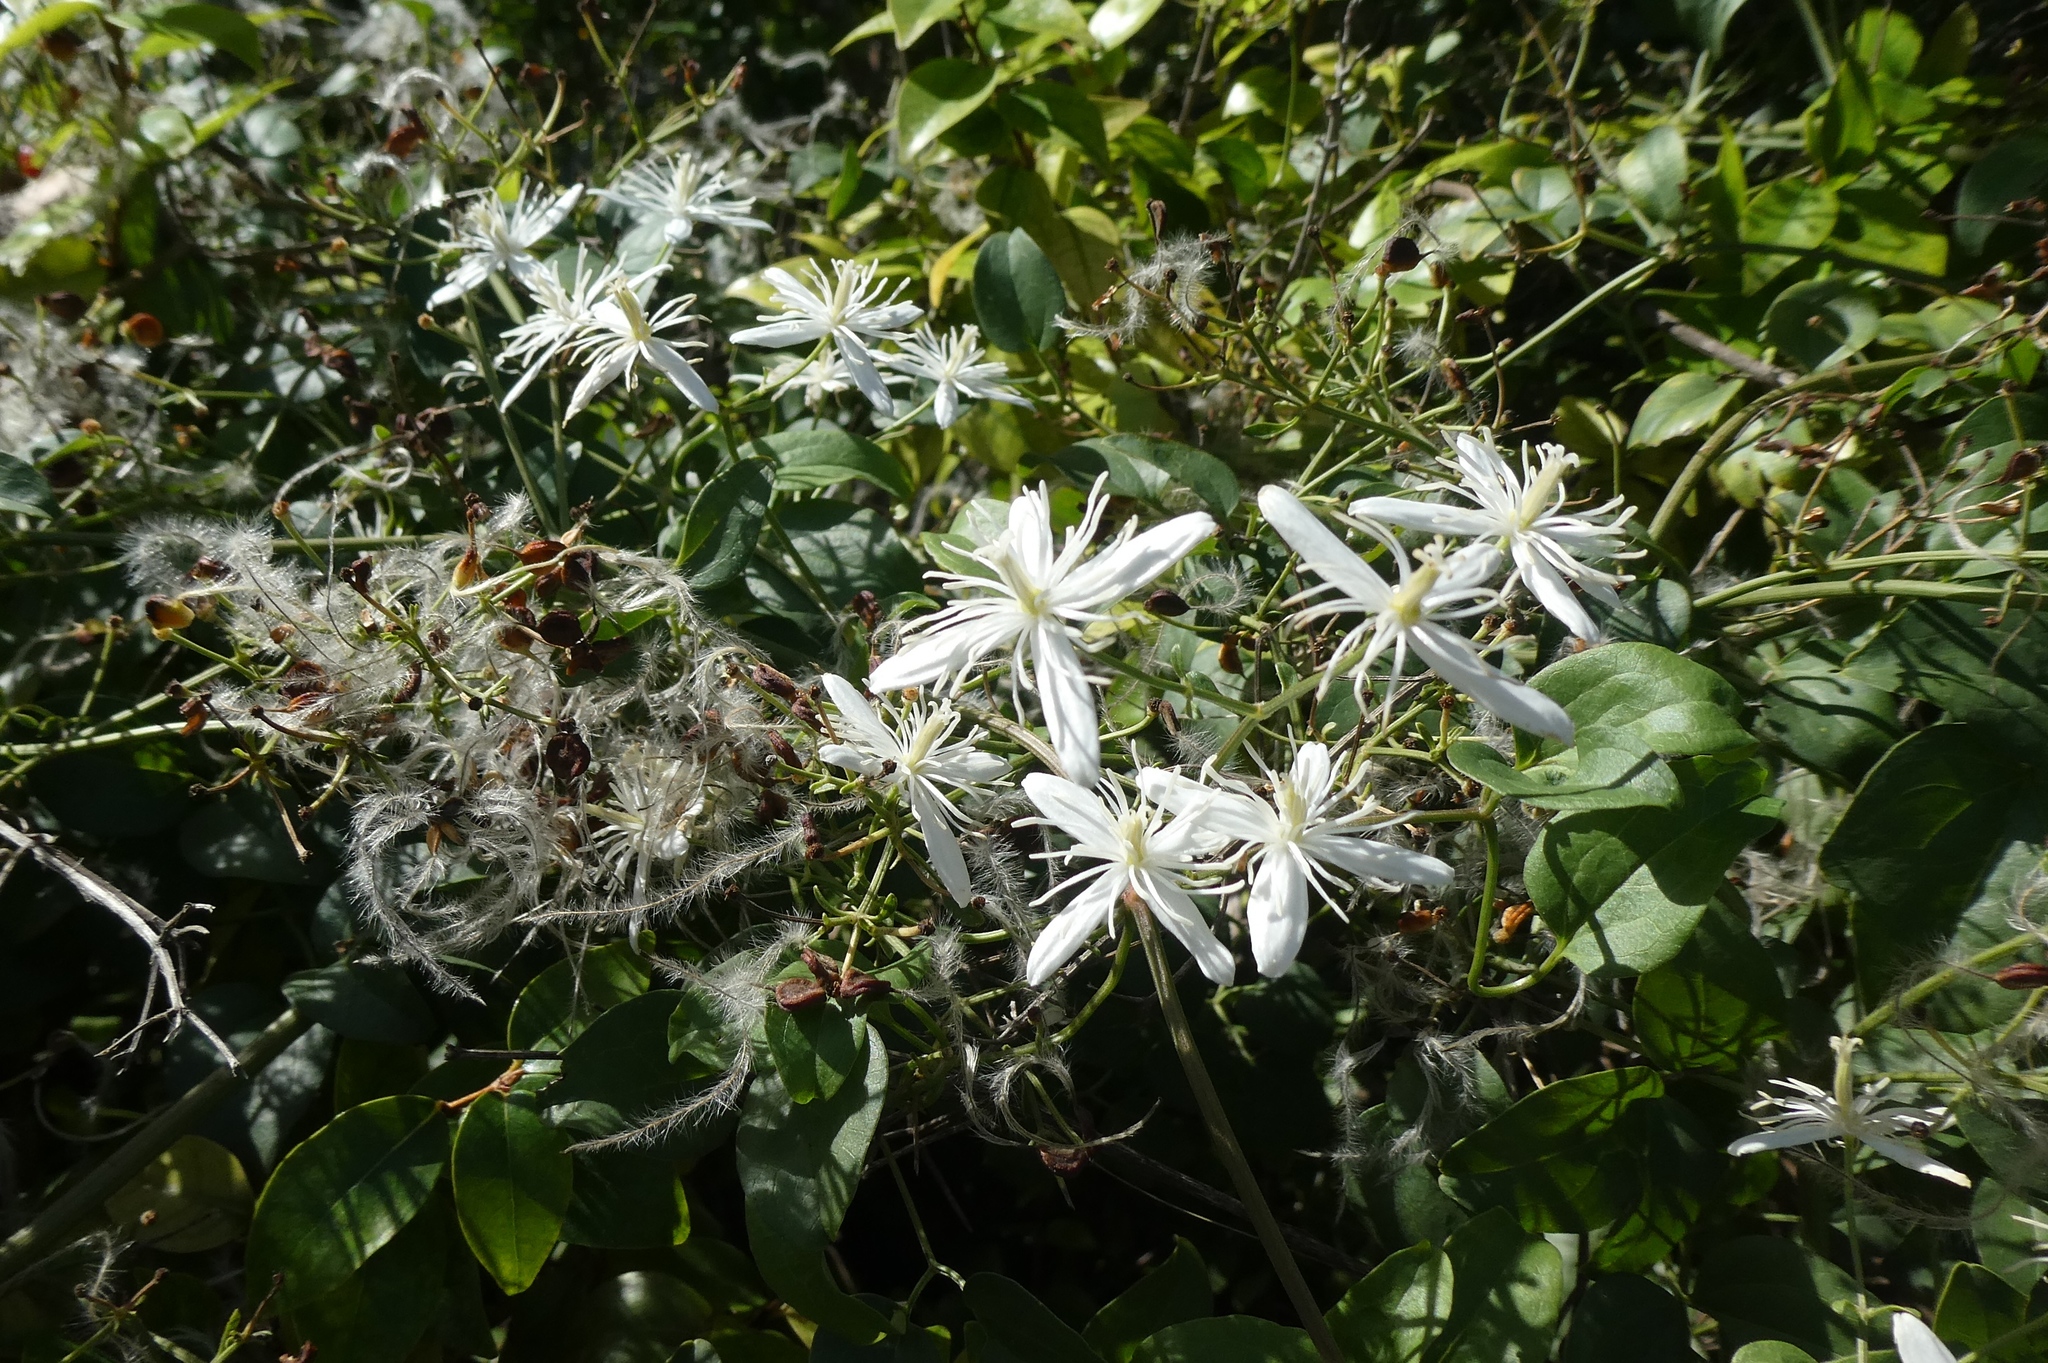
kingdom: Plantae
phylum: Tracheophyta
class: Magnoliopsida
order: Ranunculales
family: Ranunculaceae
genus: Clematis
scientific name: Clematis terniflora
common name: Sweet autumn clematis
